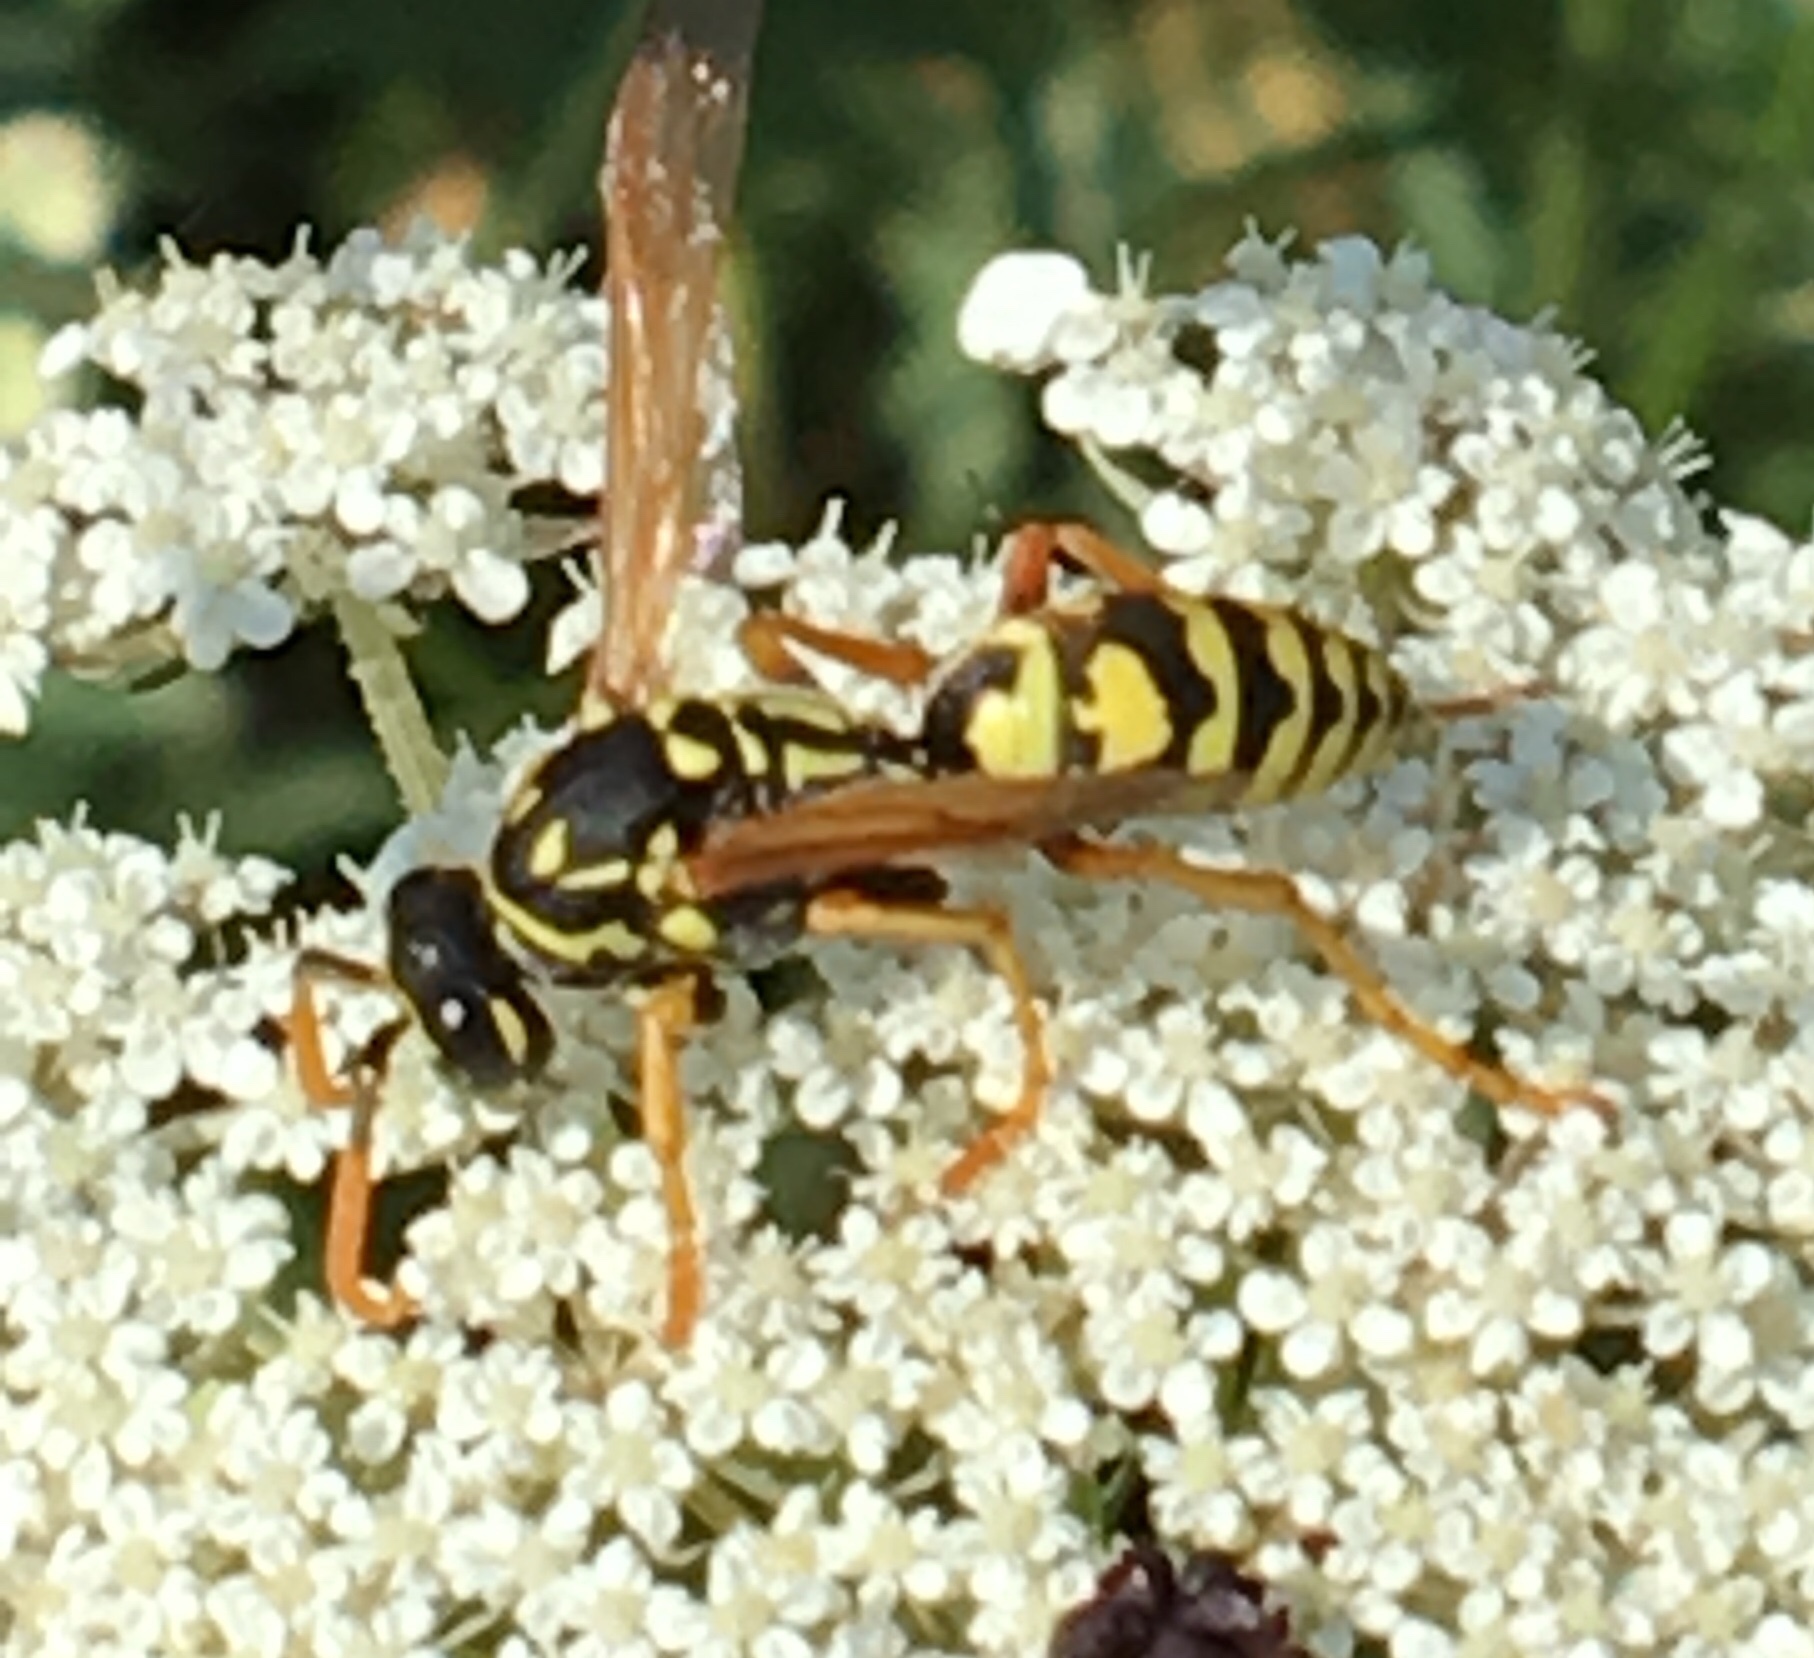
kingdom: Animalia
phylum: Arthropoda
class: Insecta
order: Hymenoptera
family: Eumenidae
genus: Polistes
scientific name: Polistes dominula
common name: Paper wasp
